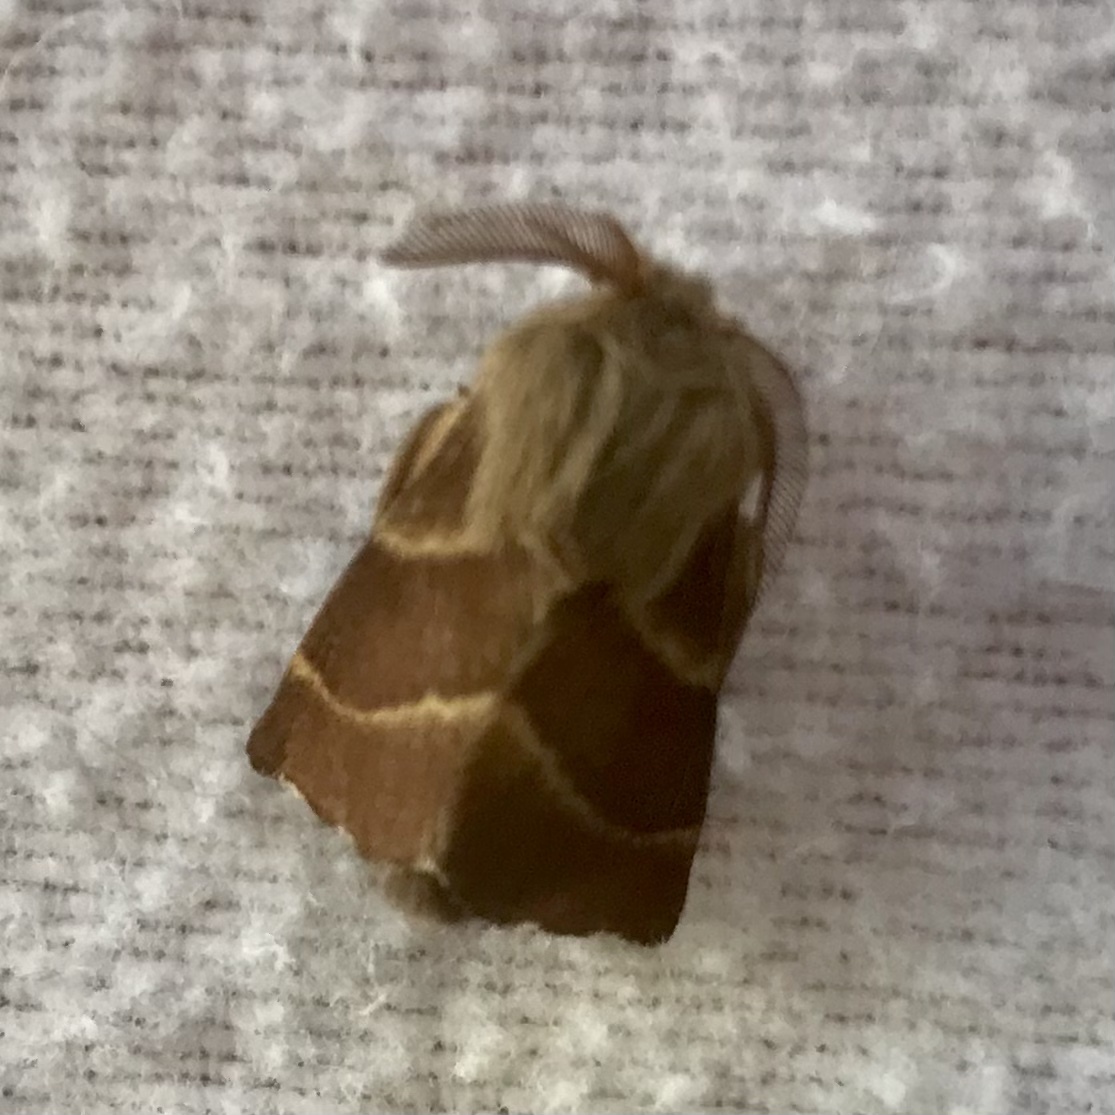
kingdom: Animalia
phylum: Arthropoda
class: Insecta
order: Lepidoptera
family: Lasiocampidae
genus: Malacosoma
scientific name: Malacosoma californica
